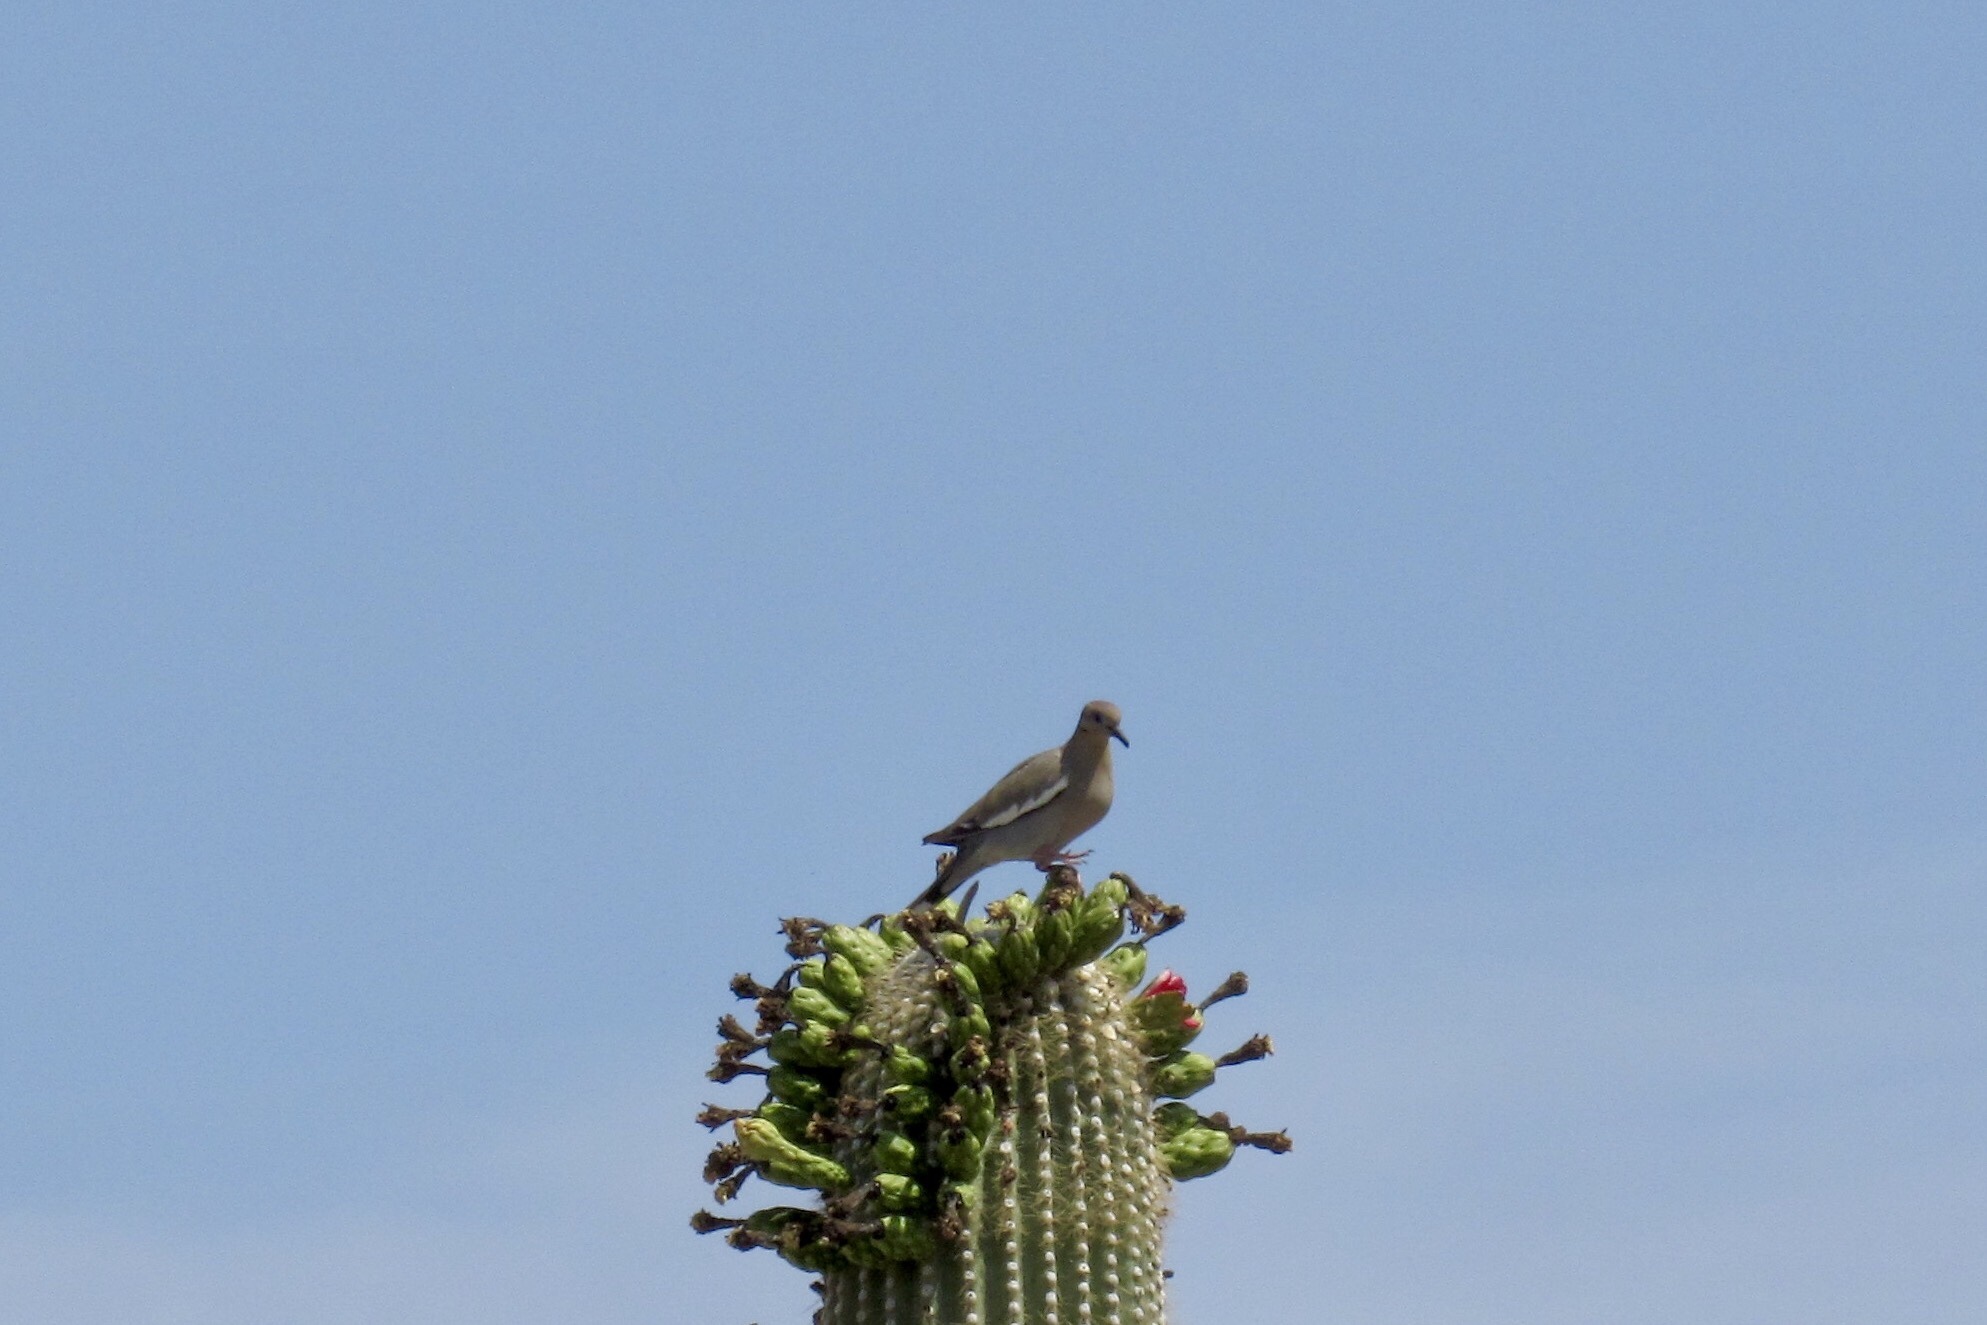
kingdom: Animalia
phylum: Chordata
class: Aves
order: Columbiformes
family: Columbidae
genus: Zenaida
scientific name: Zenaida asiatica
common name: White-winged dove
